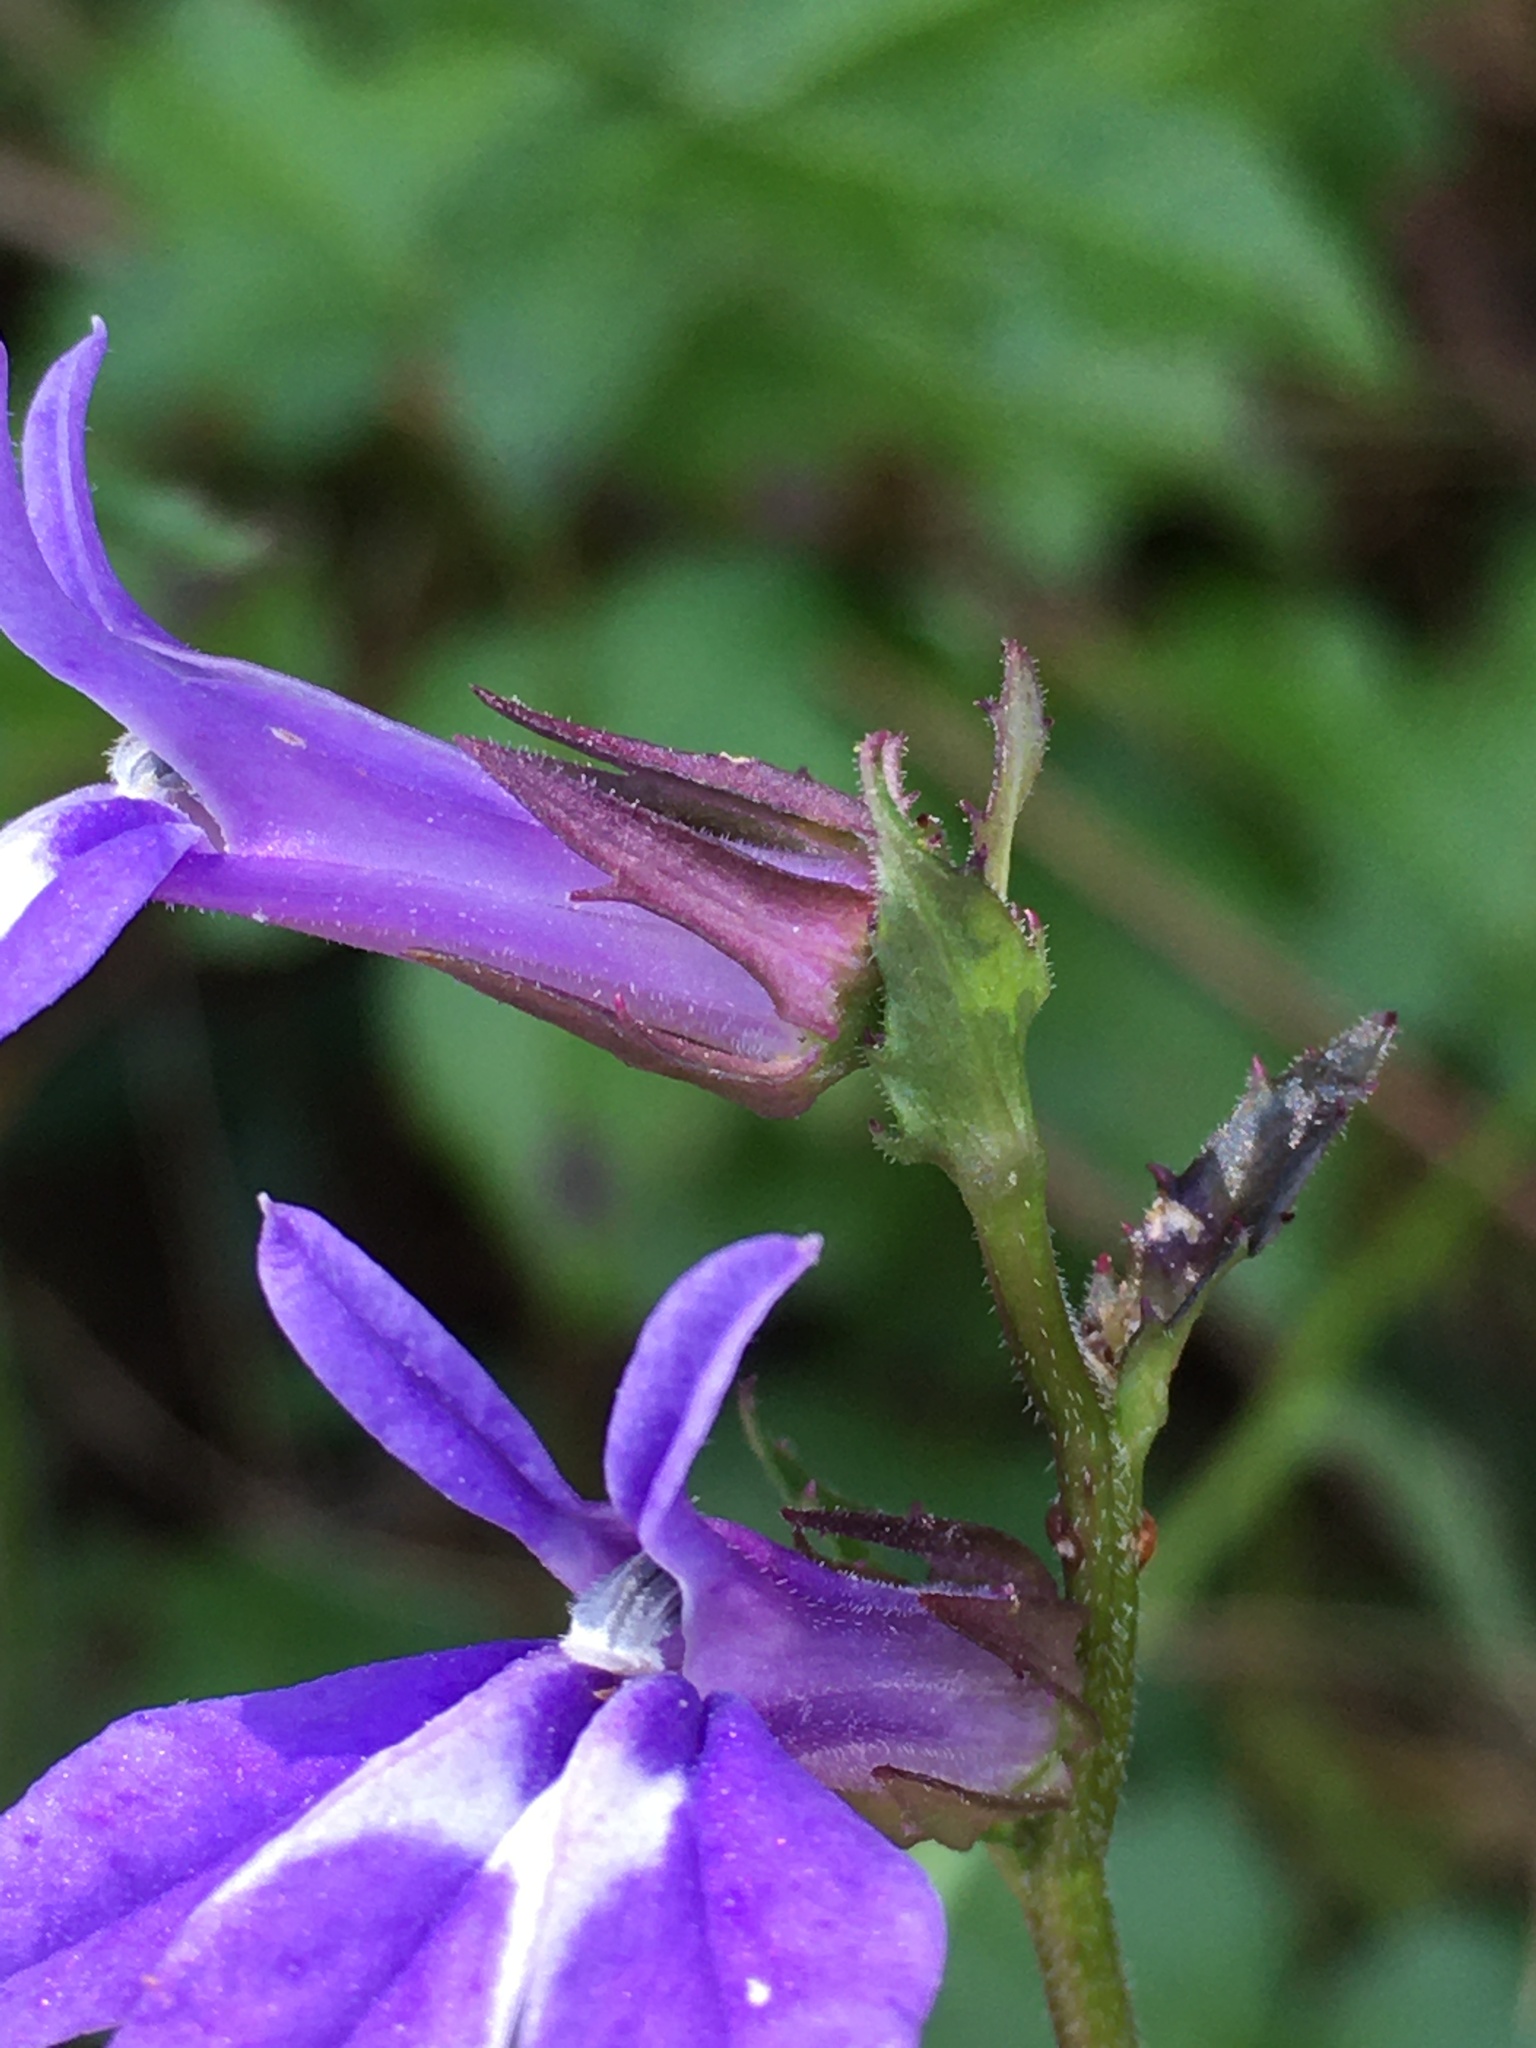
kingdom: Plantae
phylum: Tracheophyta
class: Magnoliopsida
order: Asterales
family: Campanulaceae
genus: Lobelia
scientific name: Lobelia puberula
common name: Purple dewdrop
